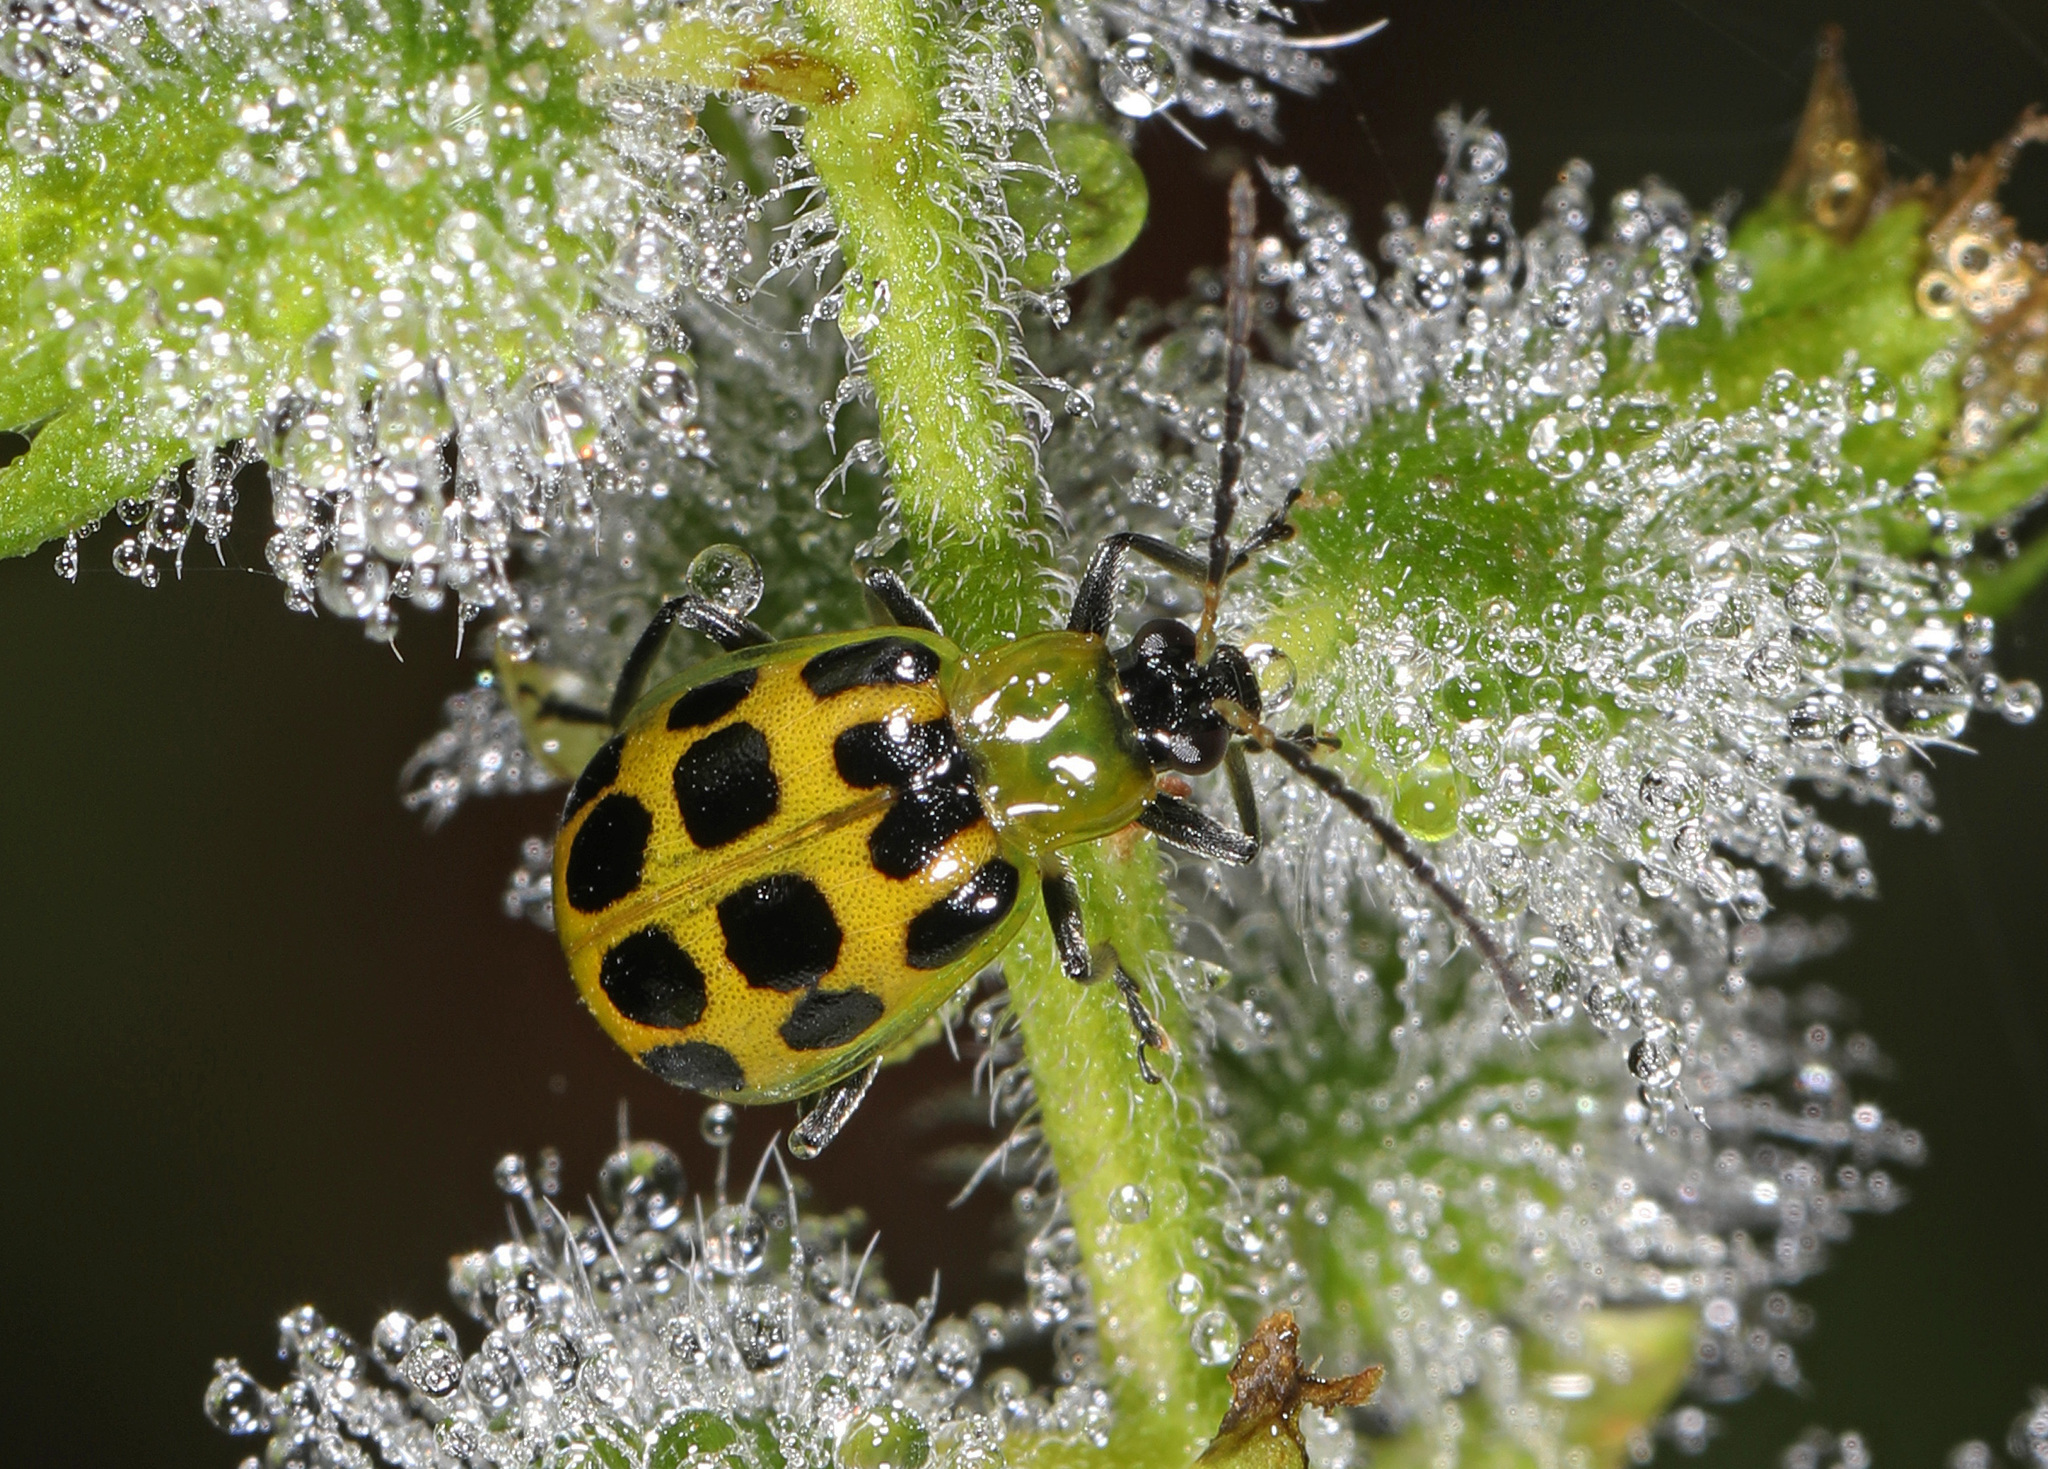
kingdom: Animalia
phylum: Arthropoda
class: Insecta
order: Coleoptera
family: Chrysomelidae
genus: Diabrotica
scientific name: Diabrotica undecimpunctata
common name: Spotted cucumber beetle
